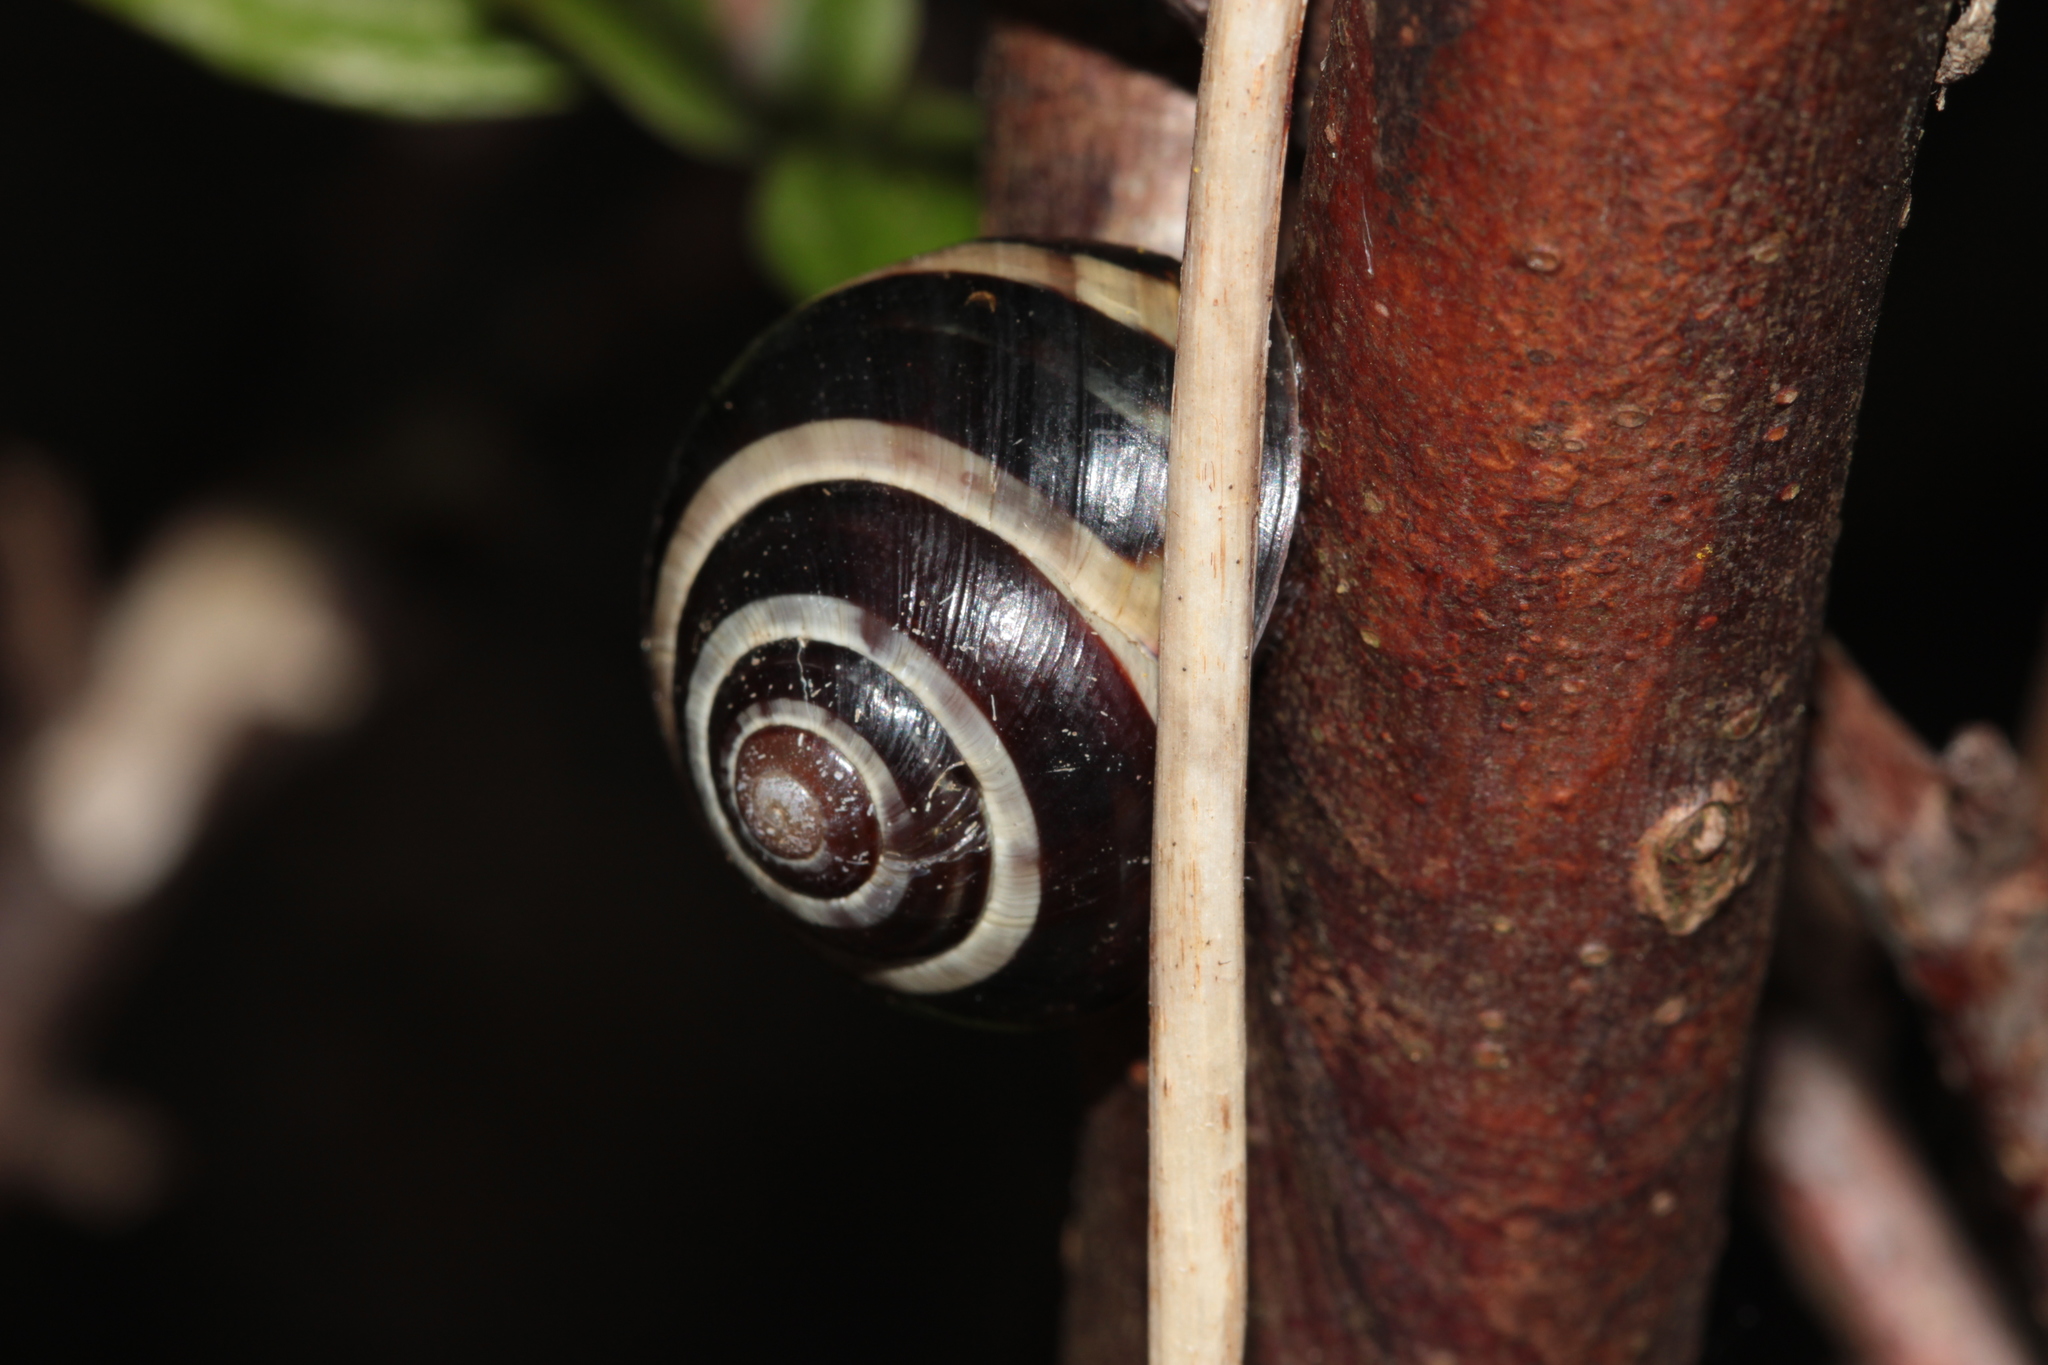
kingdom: Animalia
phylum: Mollusca
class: Gastropoda
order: Stylommatophora
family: Helicidae
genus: Cepaea
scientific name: Cepaea nemoralis
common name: Grovesnail
